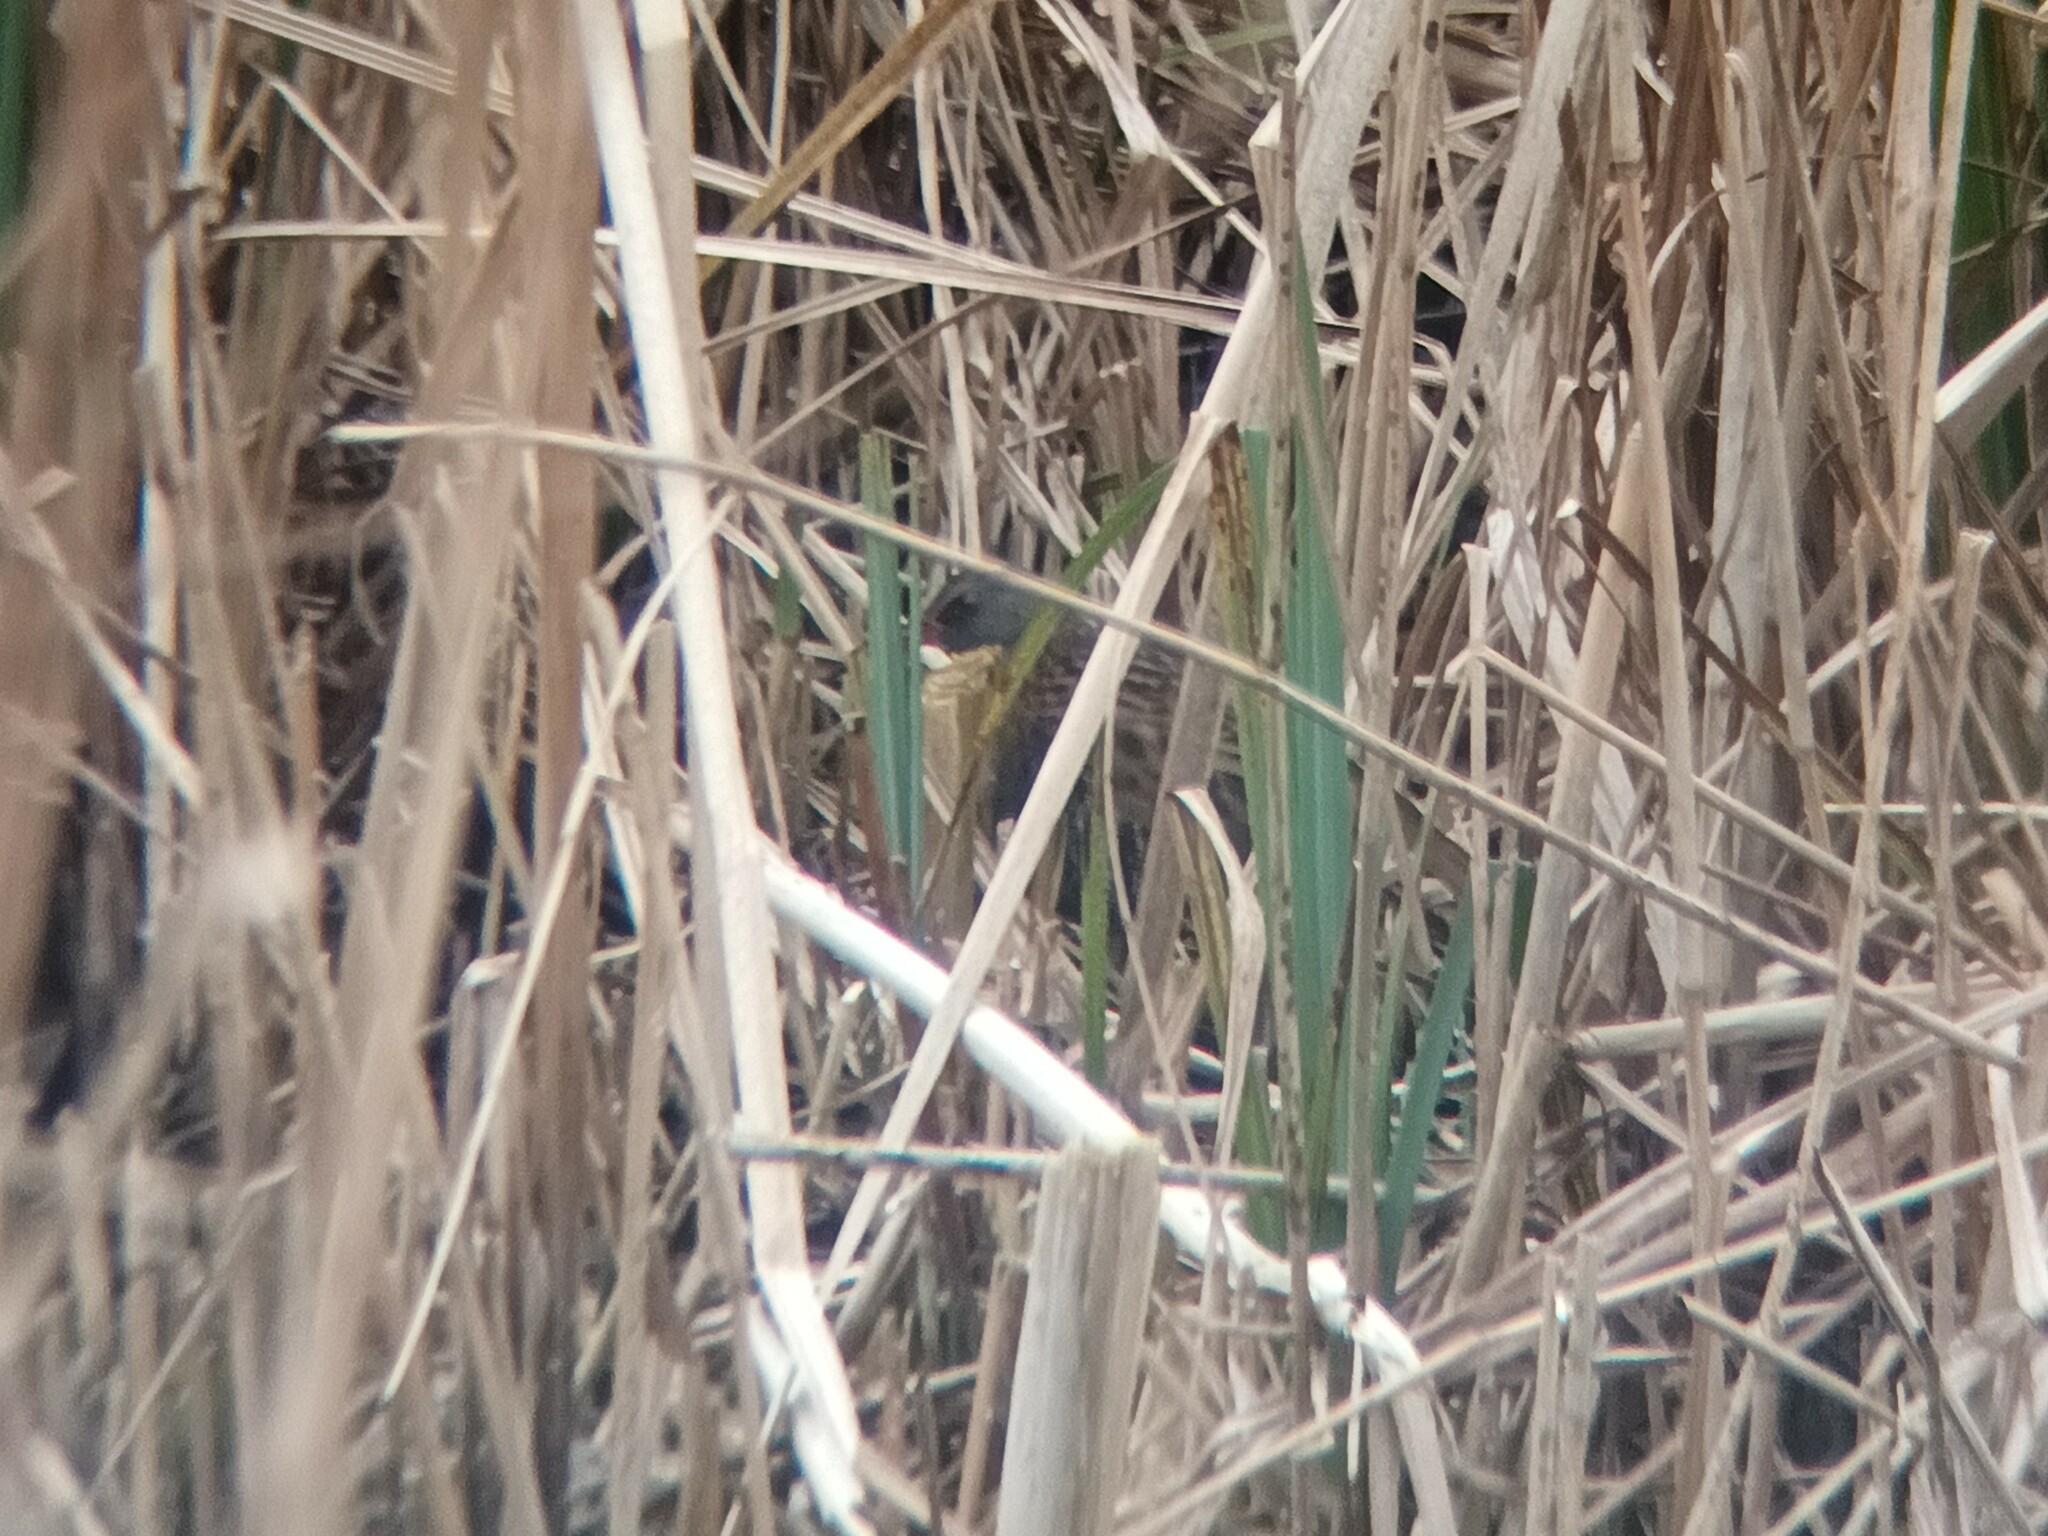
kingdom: Animalia
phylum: Chordata
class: Aves
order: Gruiformes
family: Rallidae
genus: Rallus
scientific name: Rallus aquaticus
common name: Water rail
